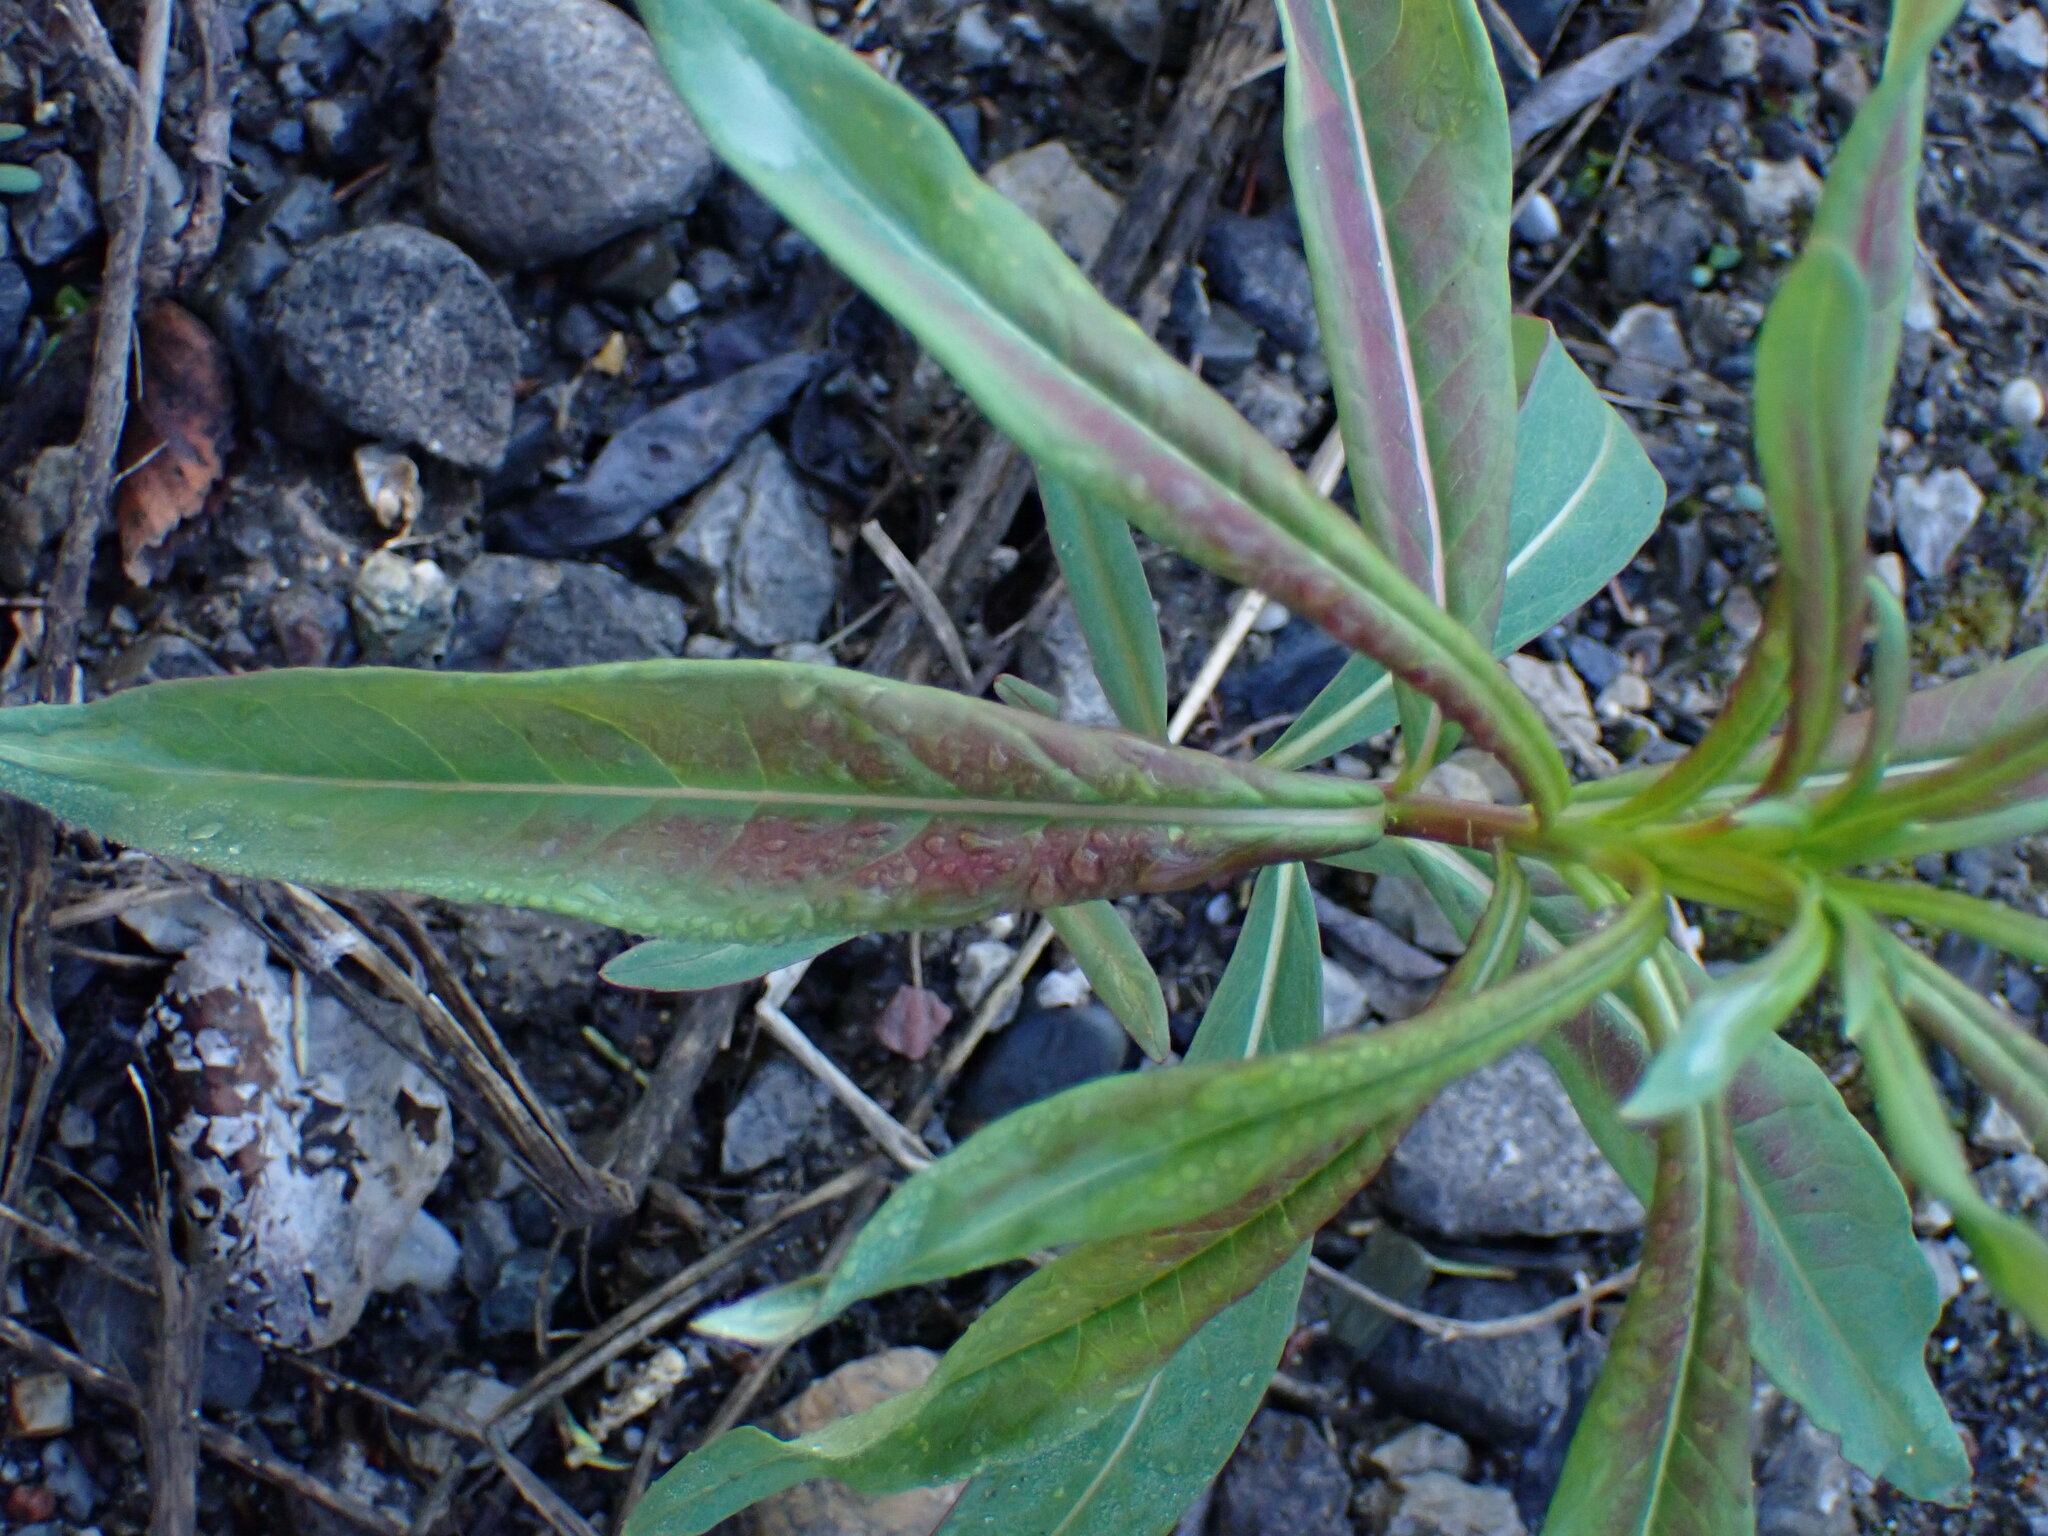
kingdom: Plantae
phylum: Tracheophyta
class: Magnoliopsida
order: Myrtales
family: Onagraceae
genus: Chamaenerion
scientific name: Chamaenerion angustifolium
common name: Fireweed
